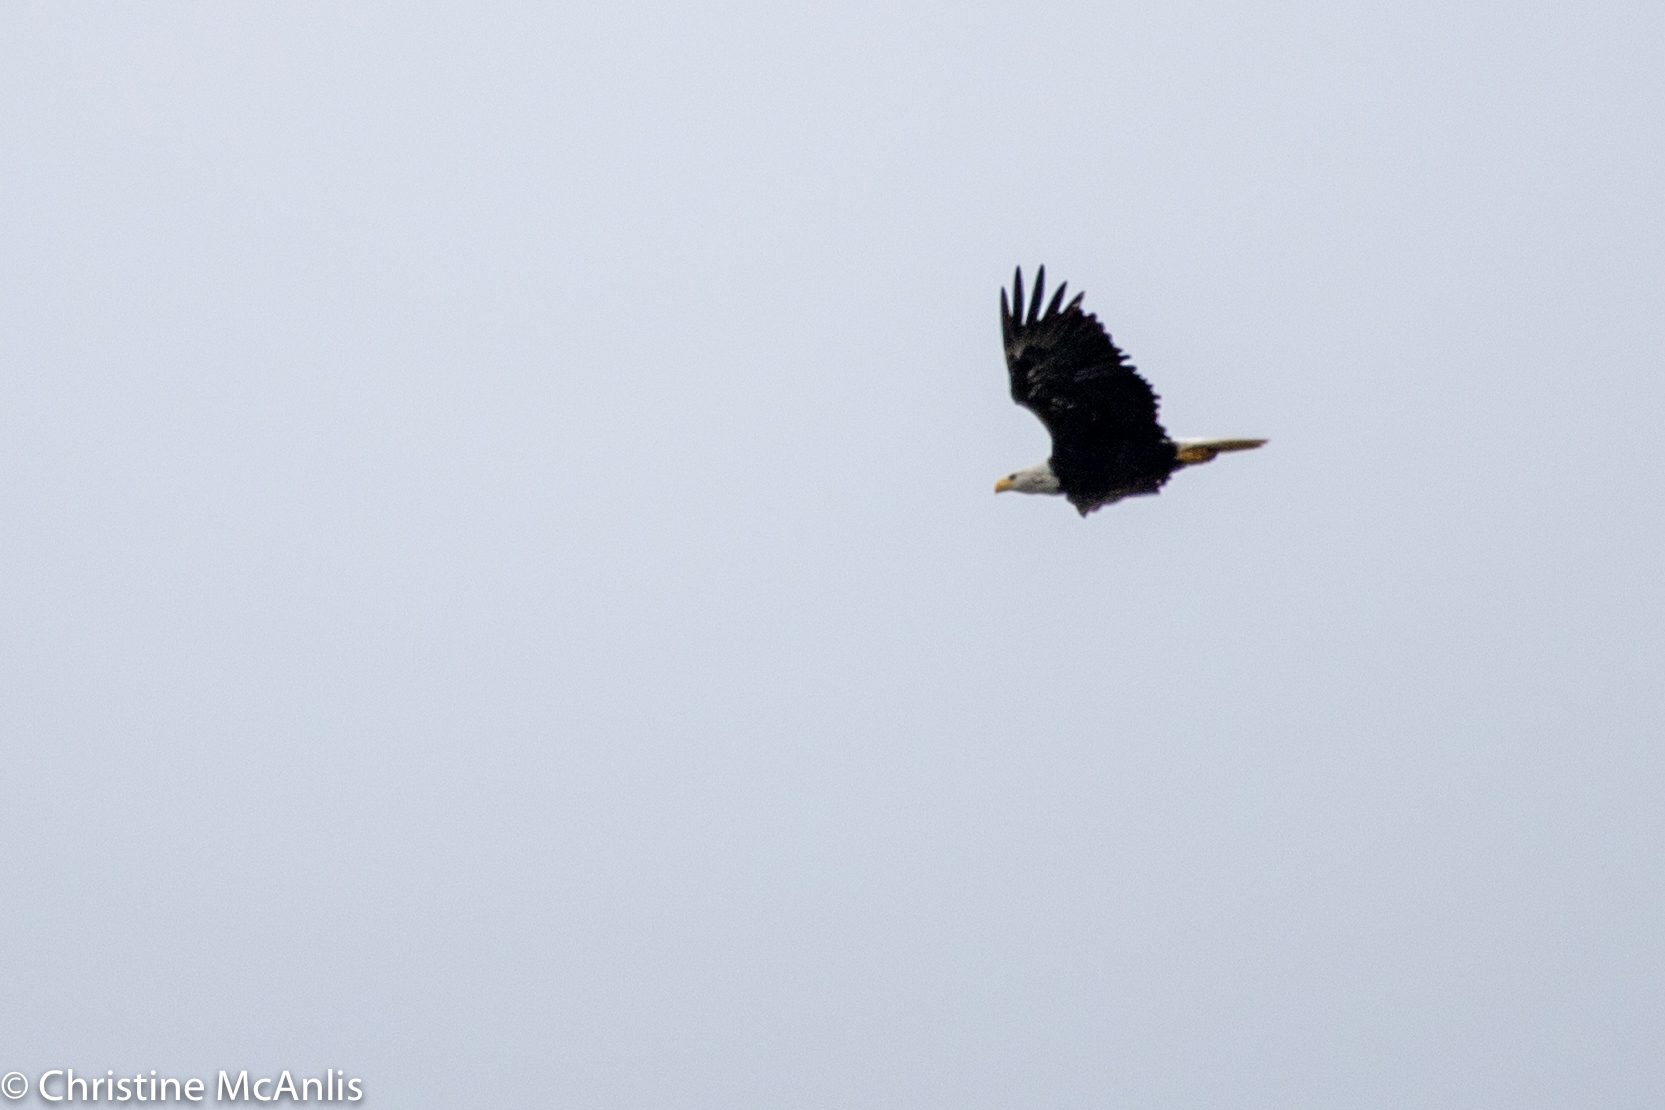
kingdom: Animalia
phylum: Chordata
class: Aves
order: Accipitriformes
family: Accipitridae
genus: Haliaeetus
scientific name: Haliaeetus leucocephalus
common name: Bald eagle
